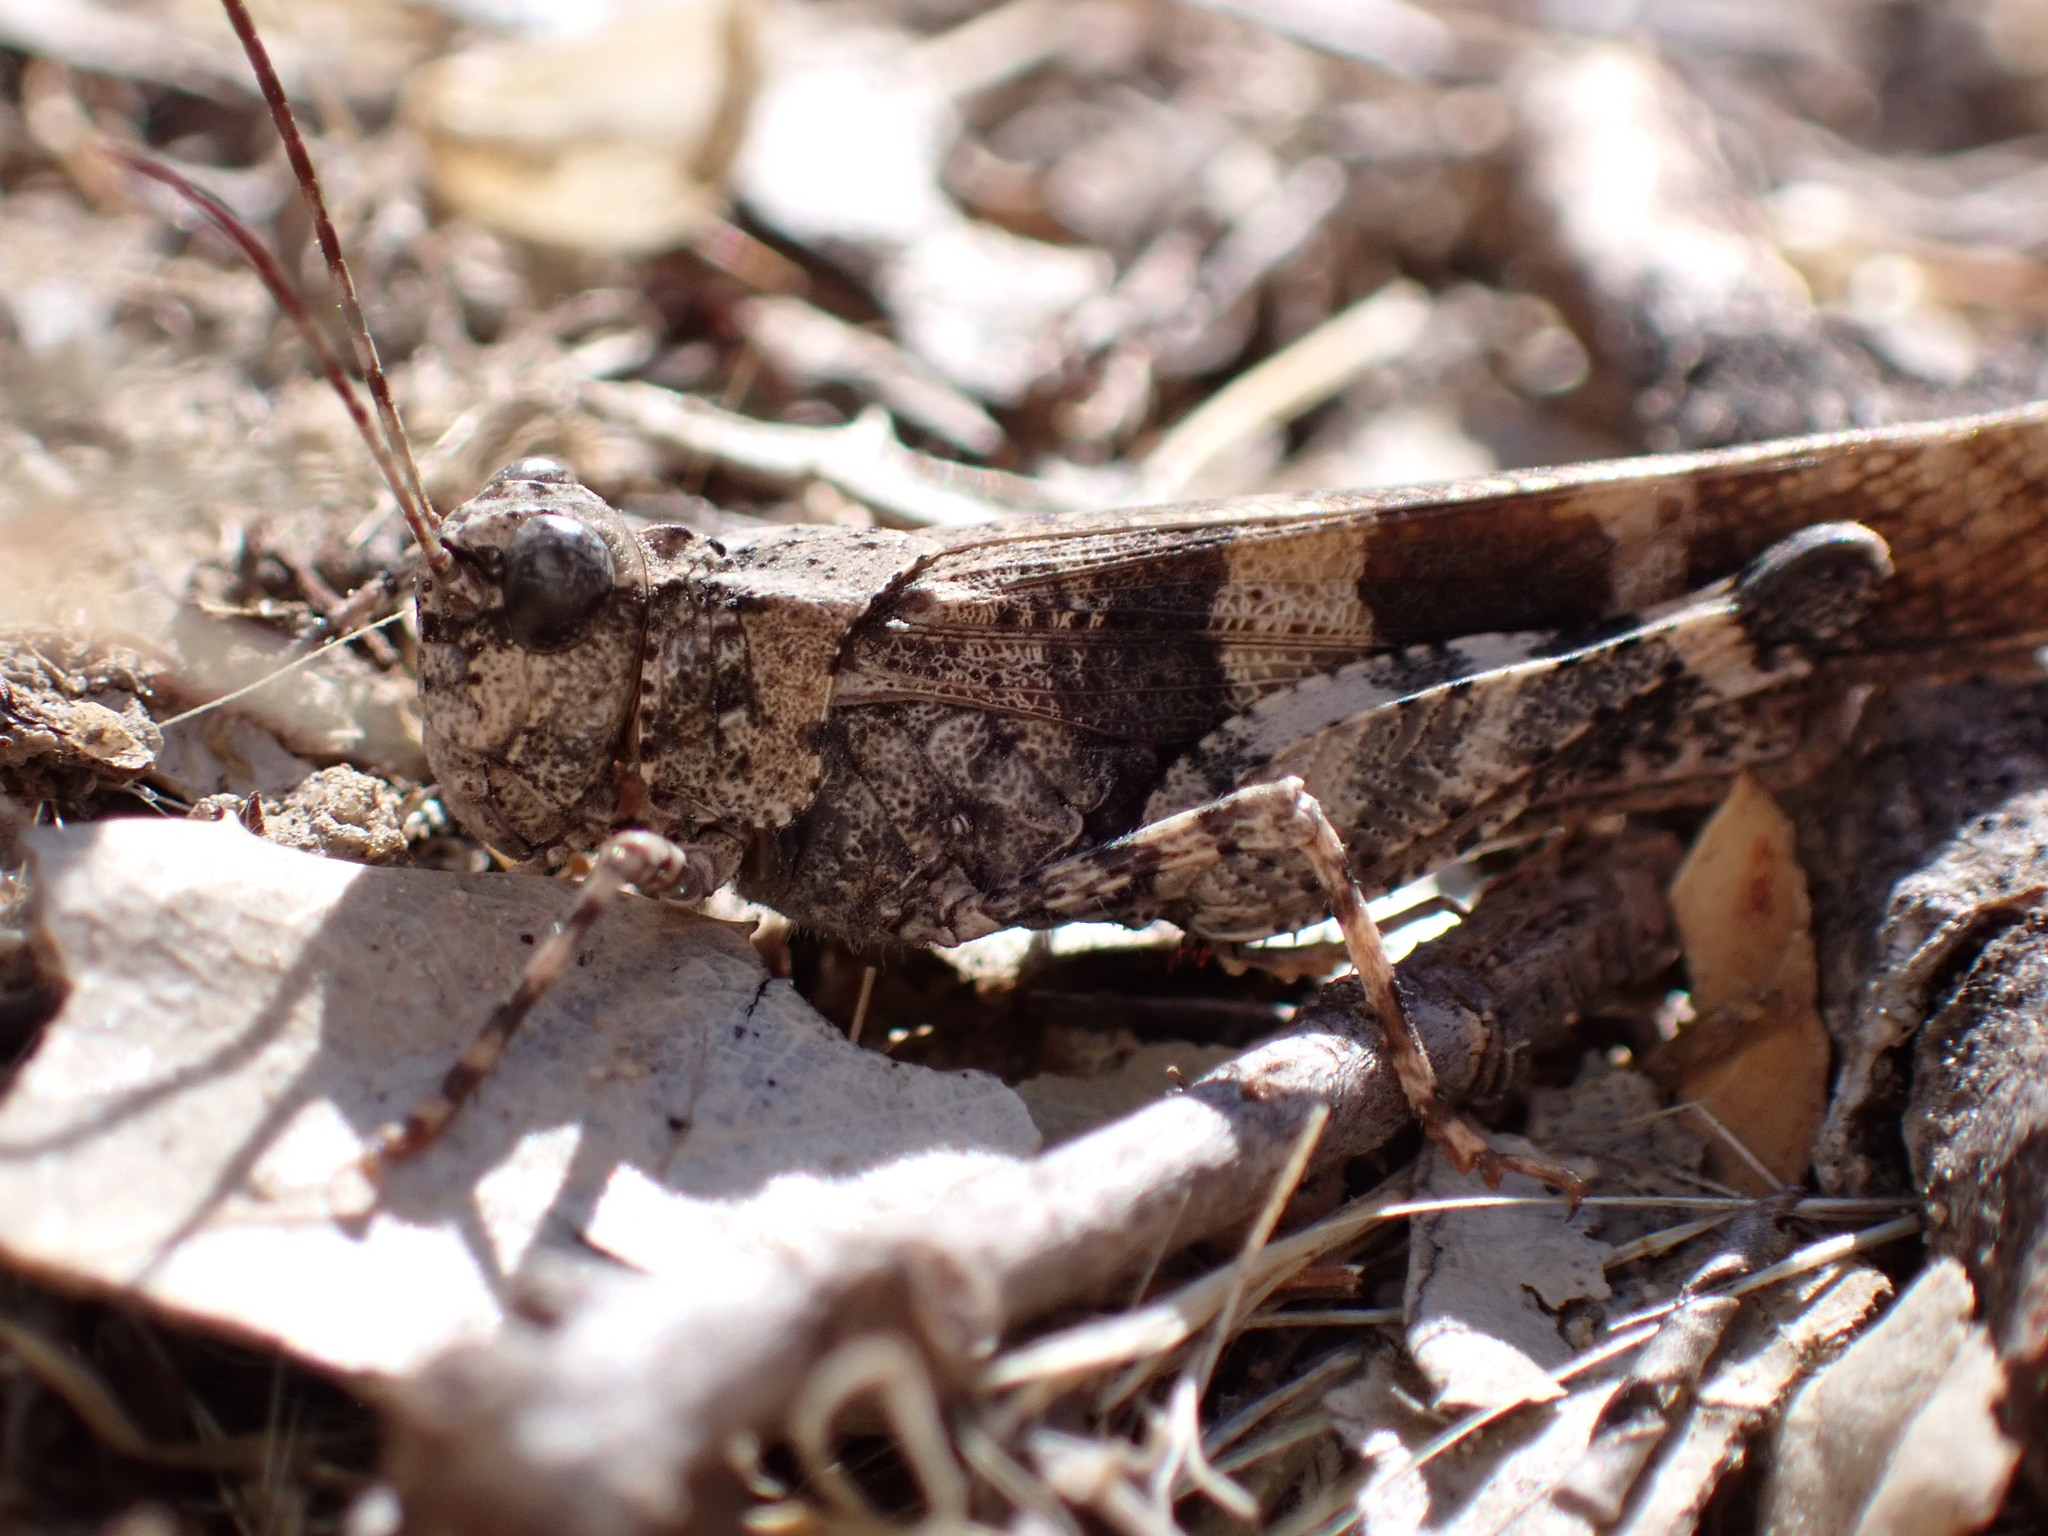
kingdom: Animalia
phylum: Arthropoda
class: Insecta
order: Orthoptera
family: Acrididae
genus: Trimerotropis
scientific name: Trimerotropis fontana
